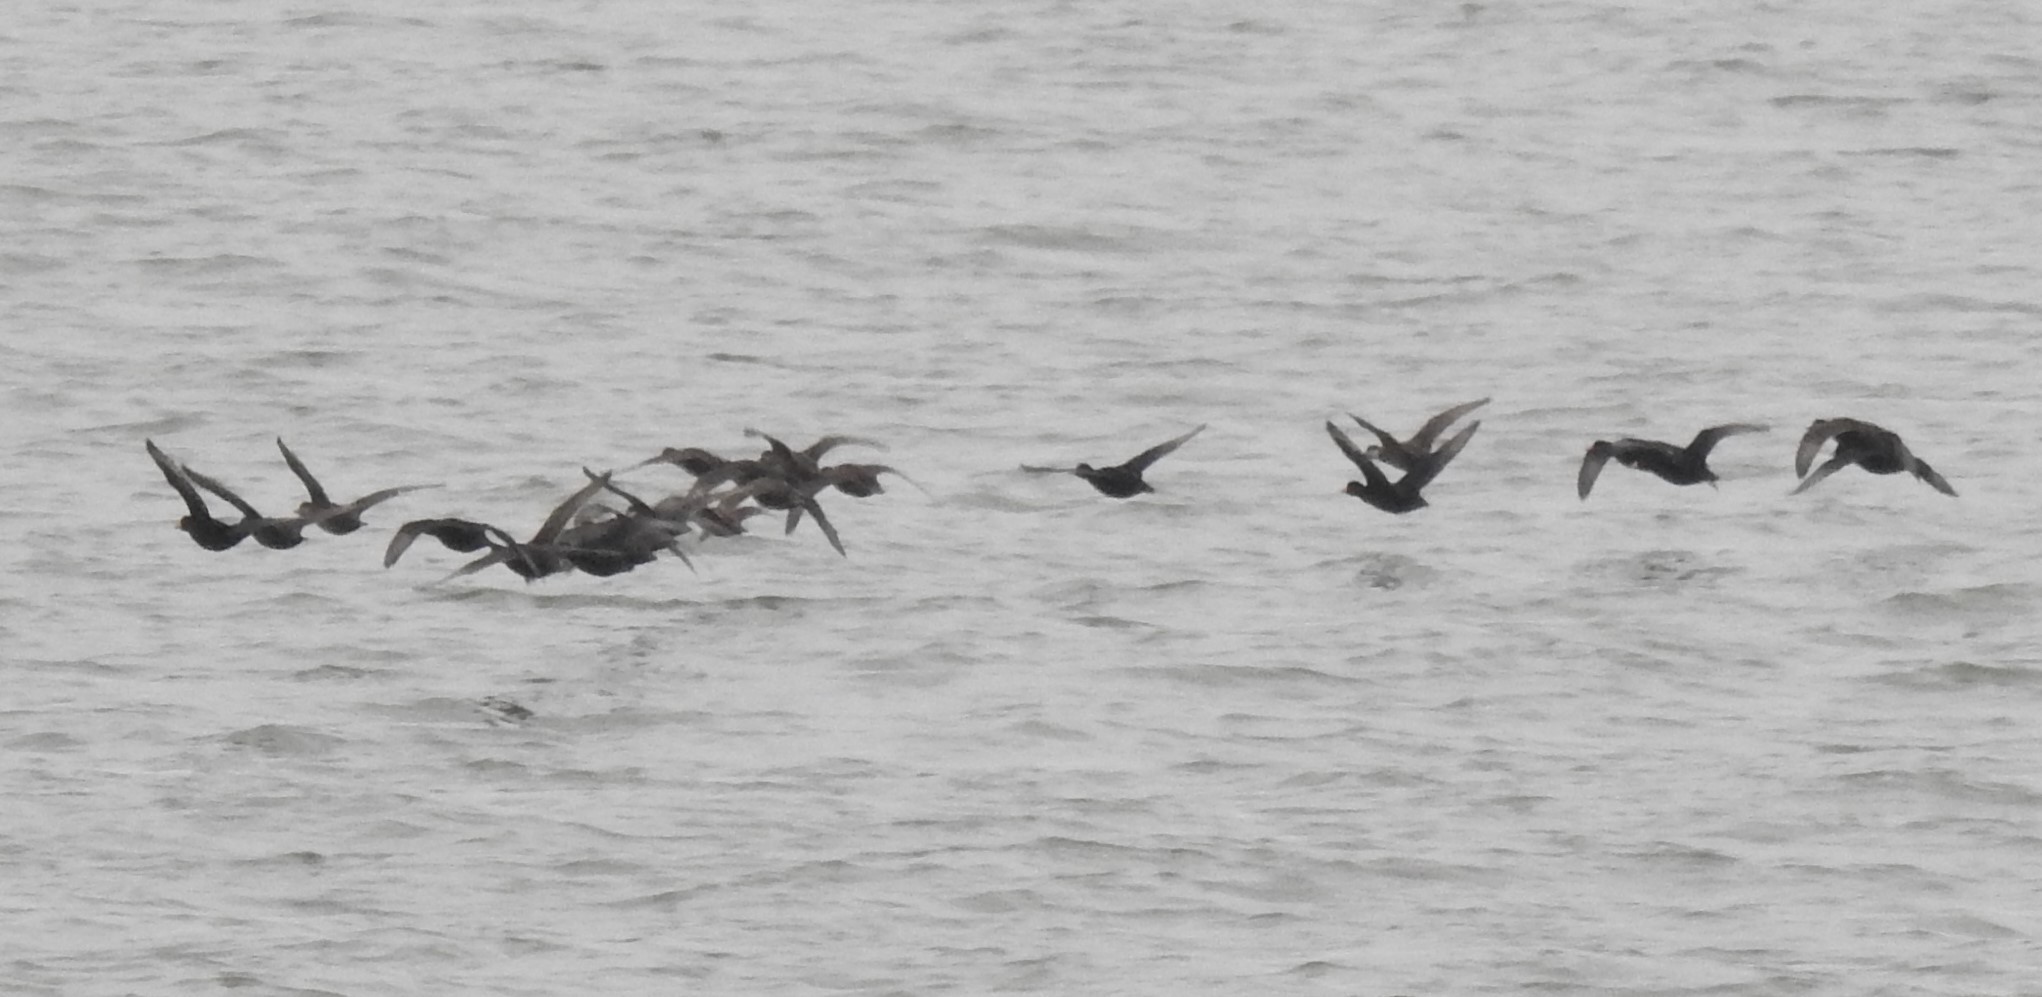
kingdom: Animalia
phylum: Chordata
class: Aves
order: Anseriformes
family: Anatidae
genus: Melanitta
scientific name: Melanitta americana
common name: Black scoter
